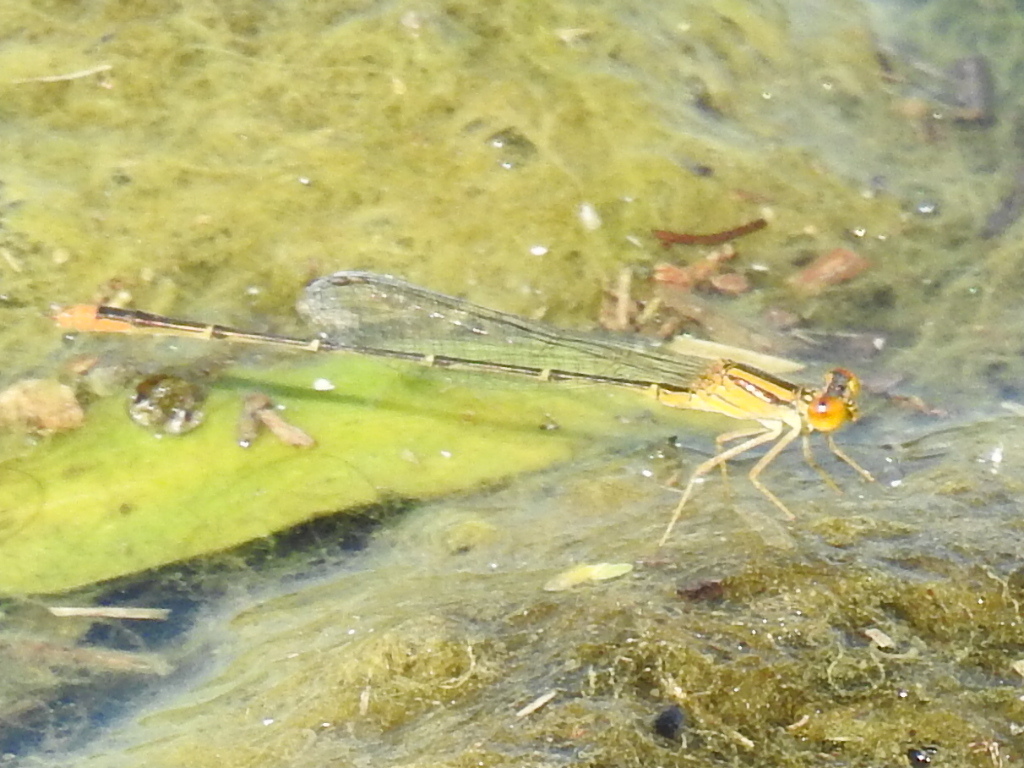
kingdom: Animalia
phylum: Arthropoda
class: Insecta
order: Odonata
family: Coenagrionidae
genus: Enallagma
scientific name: Enallagma signatum
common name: Orange bluet
